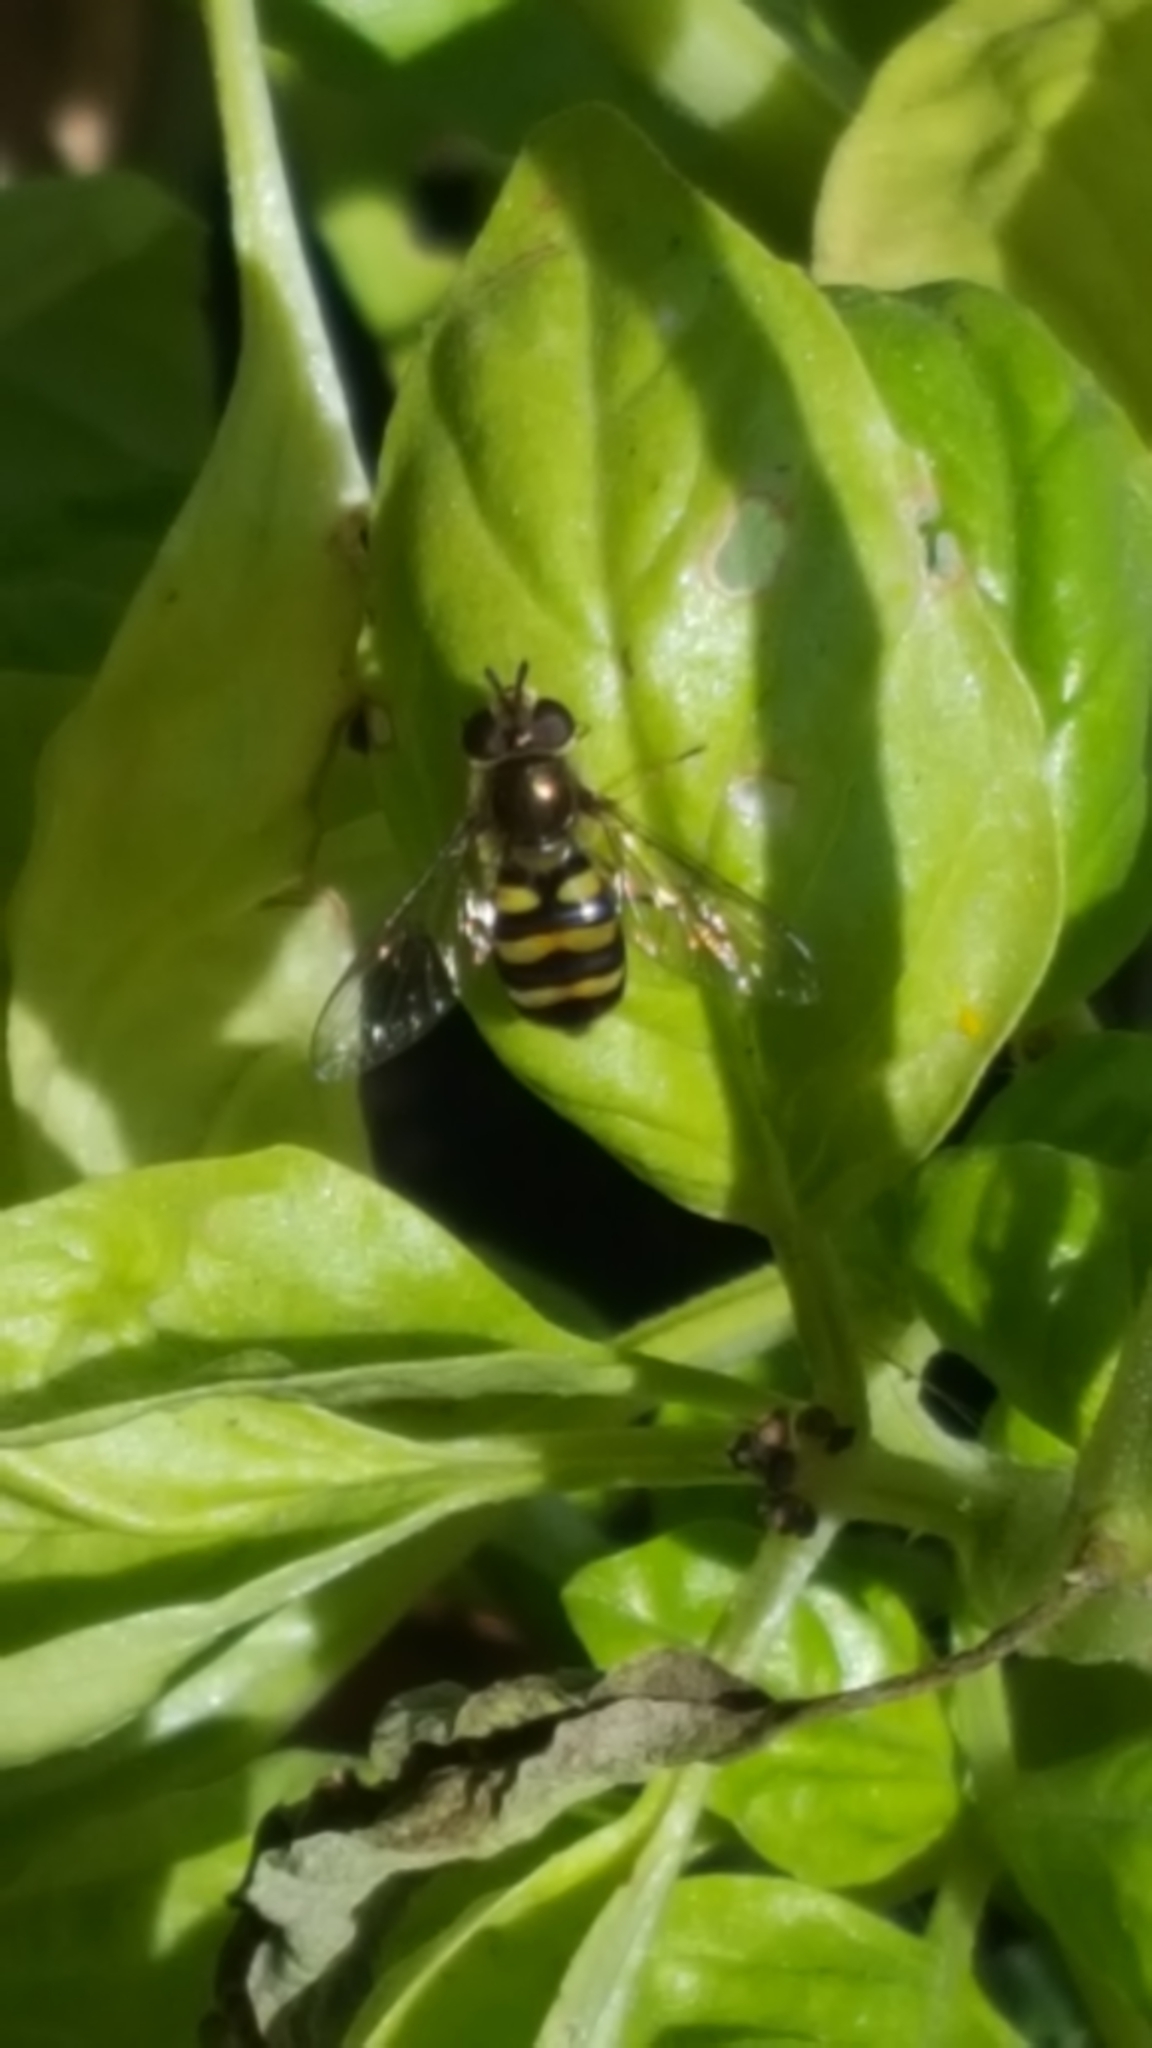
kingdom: Animalia
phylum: Arthropoda
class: Insecta
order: Diptera
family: Syrphidae
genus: Eupeodes
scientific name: Eupeodes fumipennis
